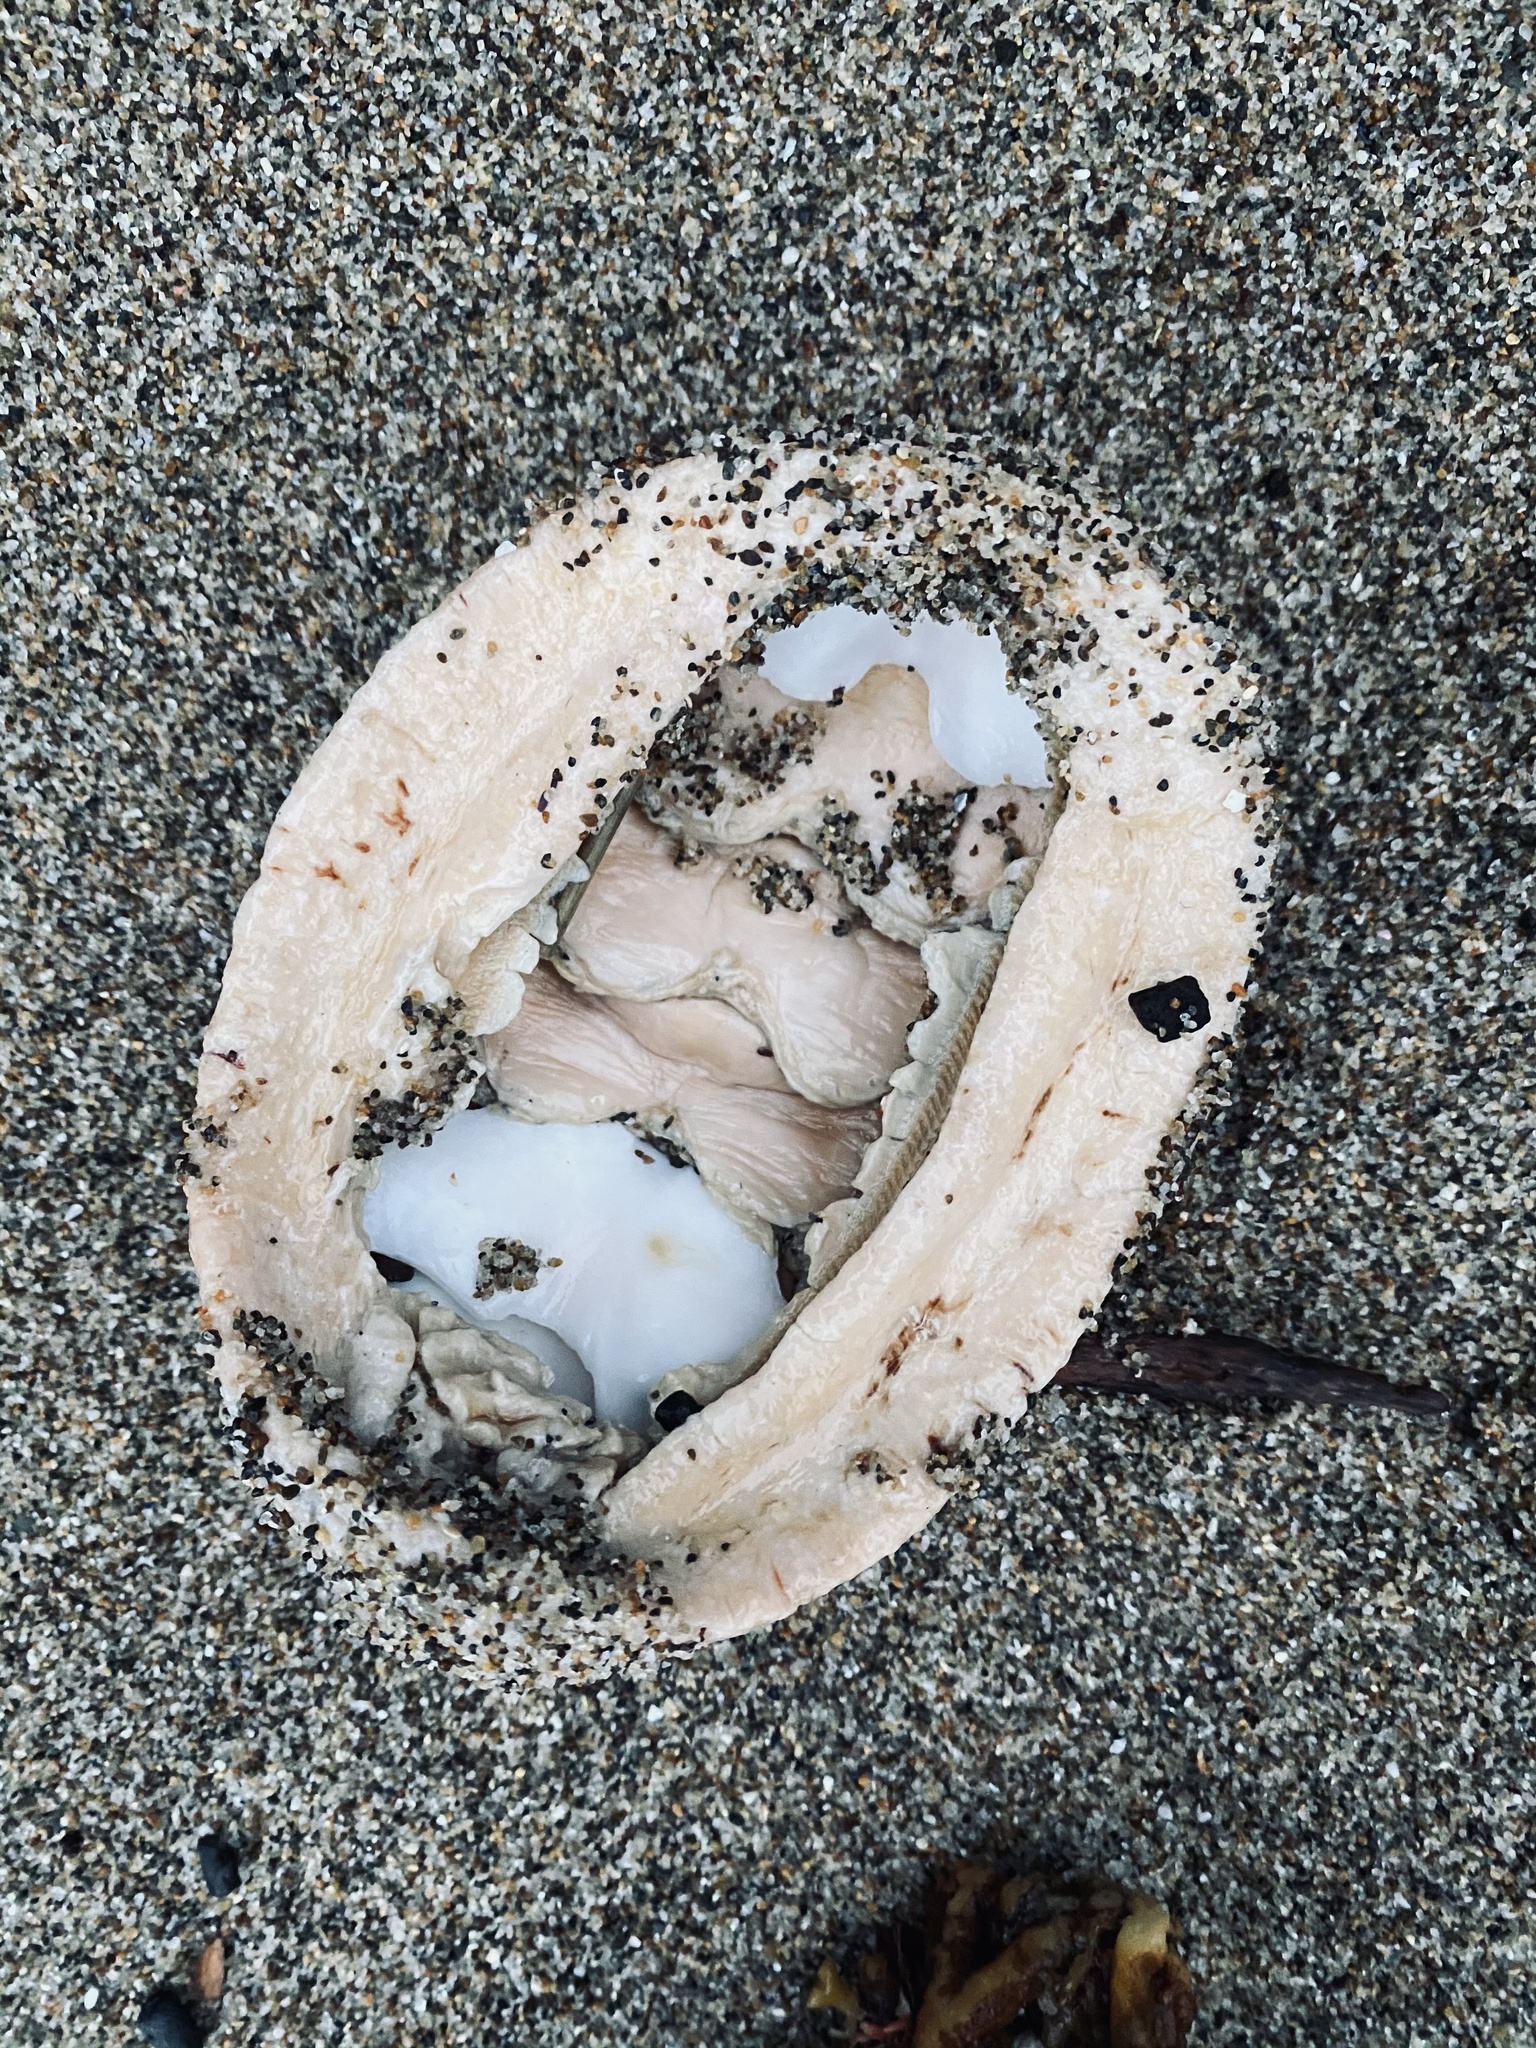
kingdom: Animalia
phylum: Mollusca
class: Polyplacophora
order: Chitonida
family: Acanthochitonidae
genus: Cryptochiton
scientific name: Cryptochiton stelleri
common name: Giant pacific chiton
